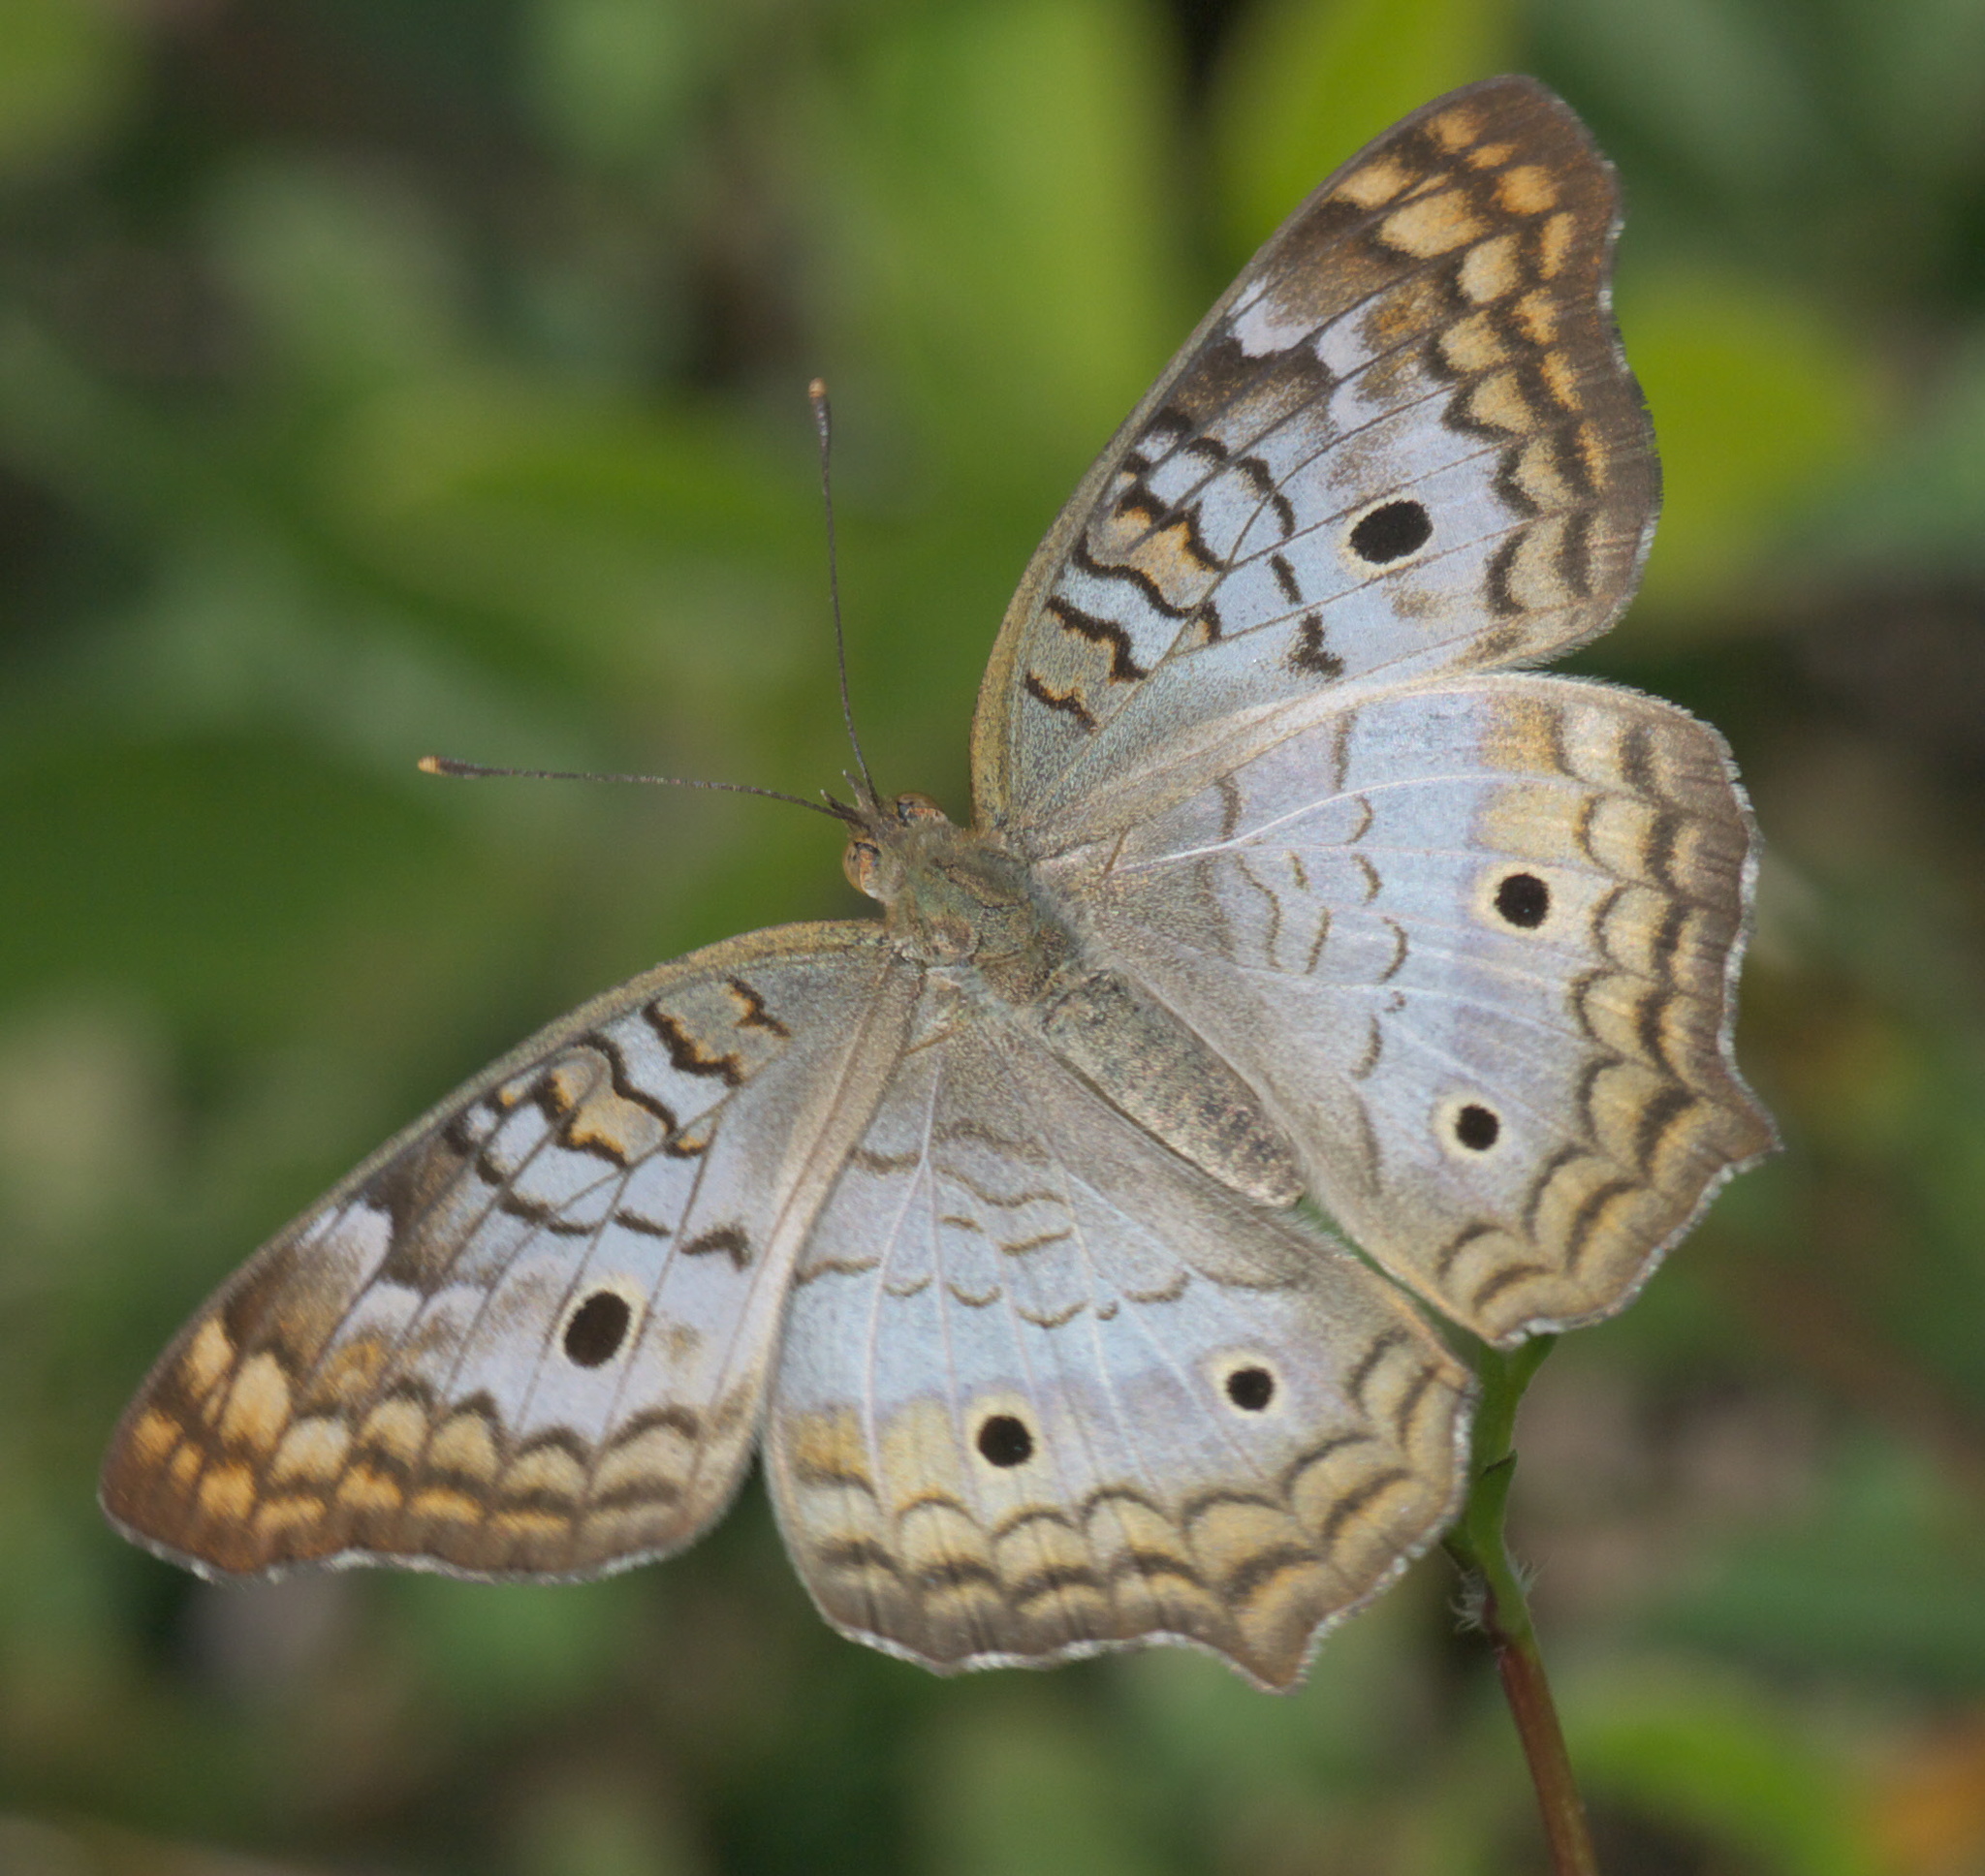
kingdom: Animalia
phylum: Arthropoda
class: Insecta
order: Lepidoptera
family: Nymphalidae
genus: Anartia
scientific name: Anartia jatrophae
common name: White peacock
